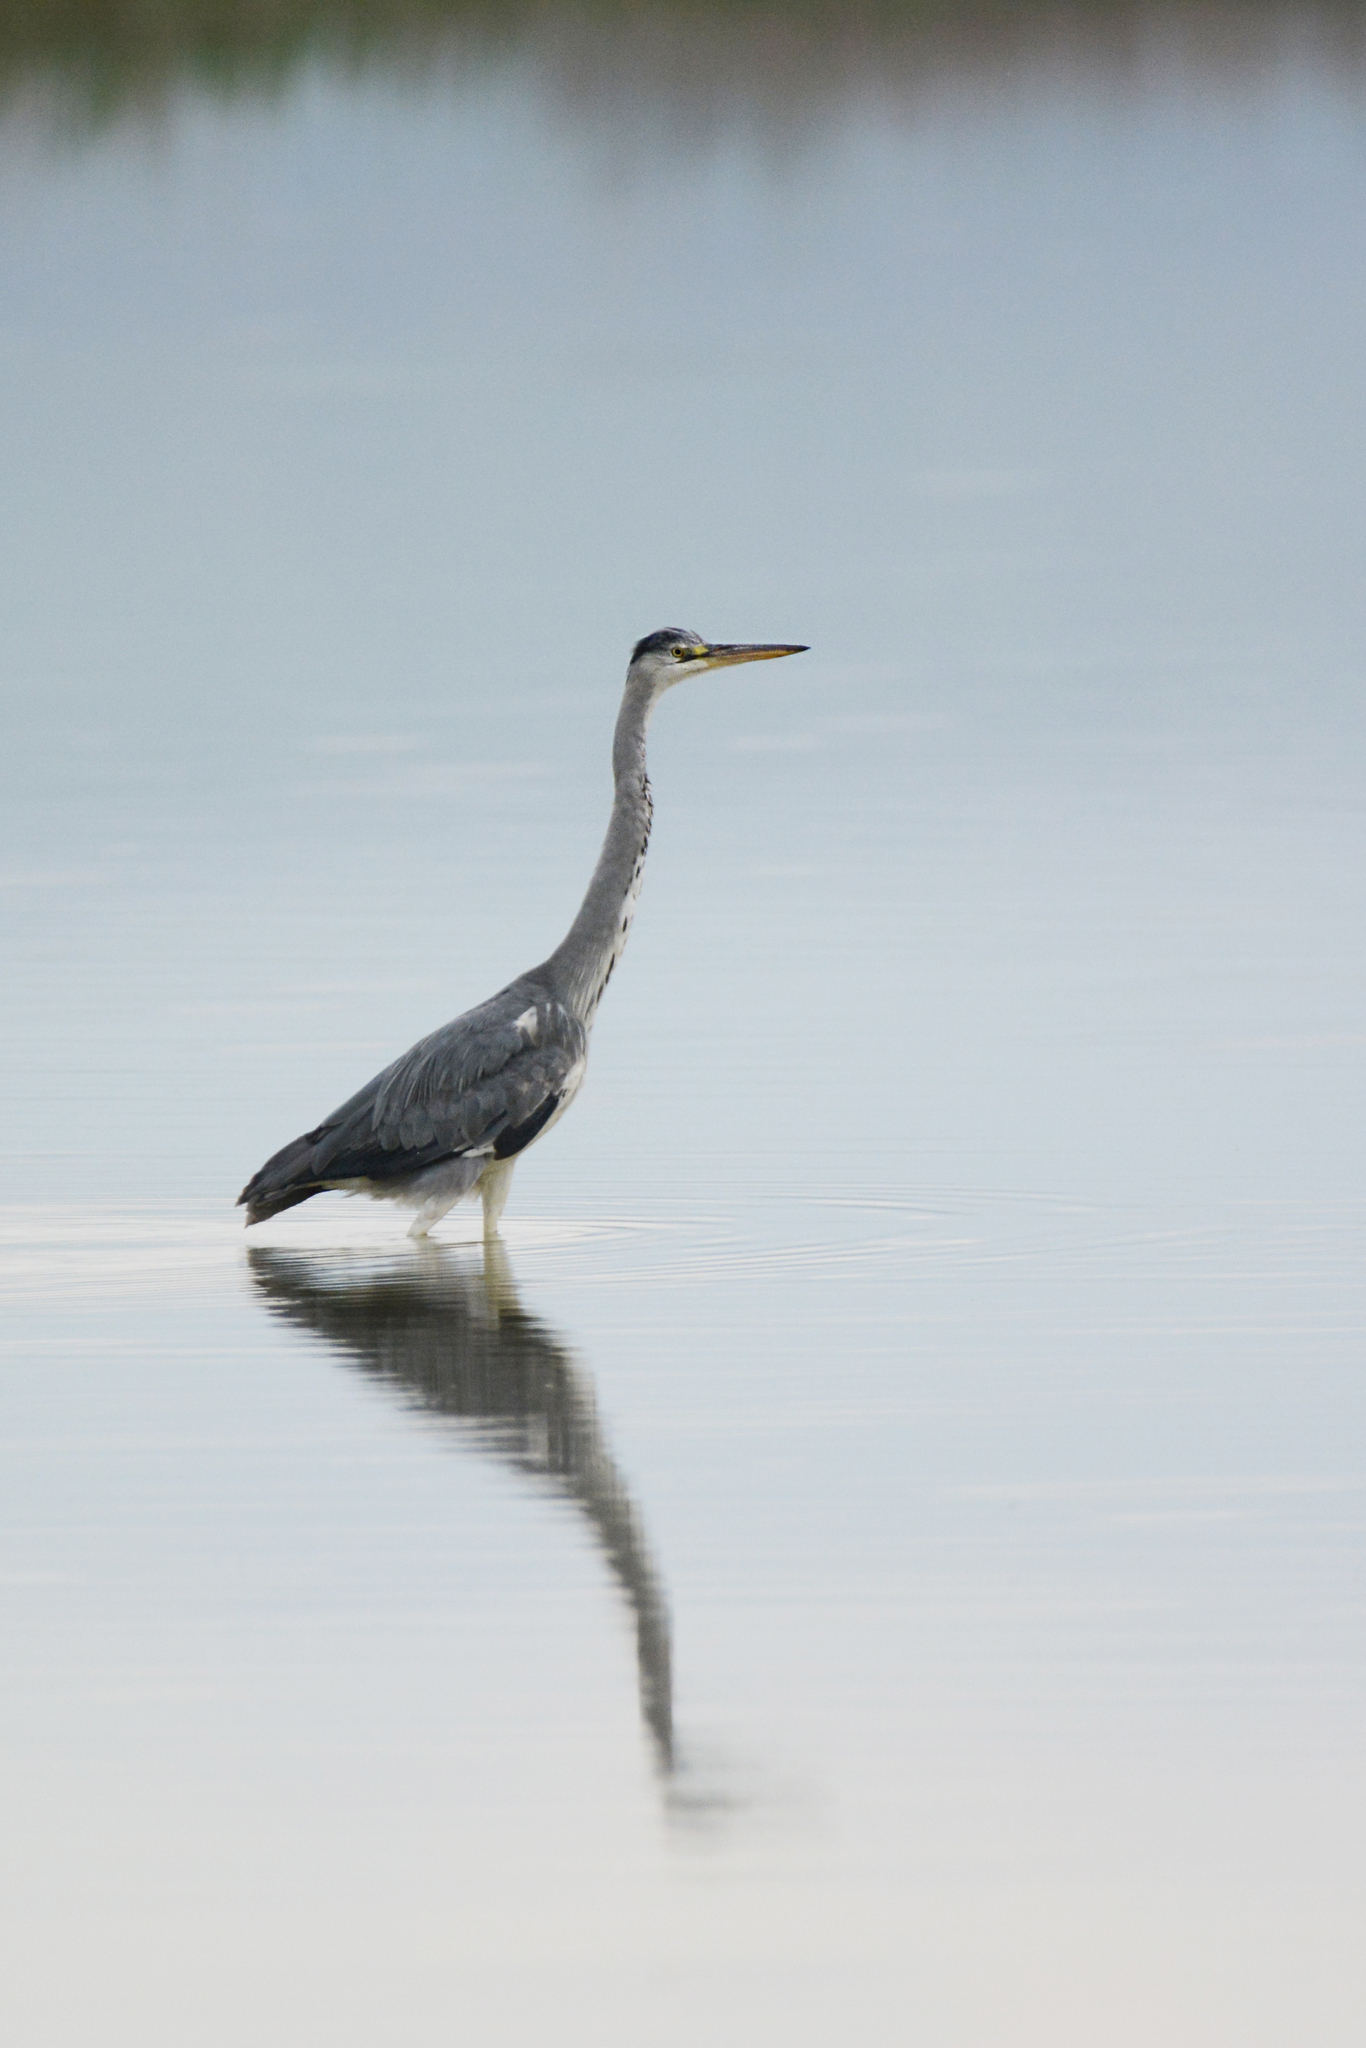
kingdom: Animalia
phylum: Chordata
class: Aves
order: Pelecaniformes
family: Ardeidae
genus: Ardea
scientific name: Ardea cinerea
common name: Grey heron
